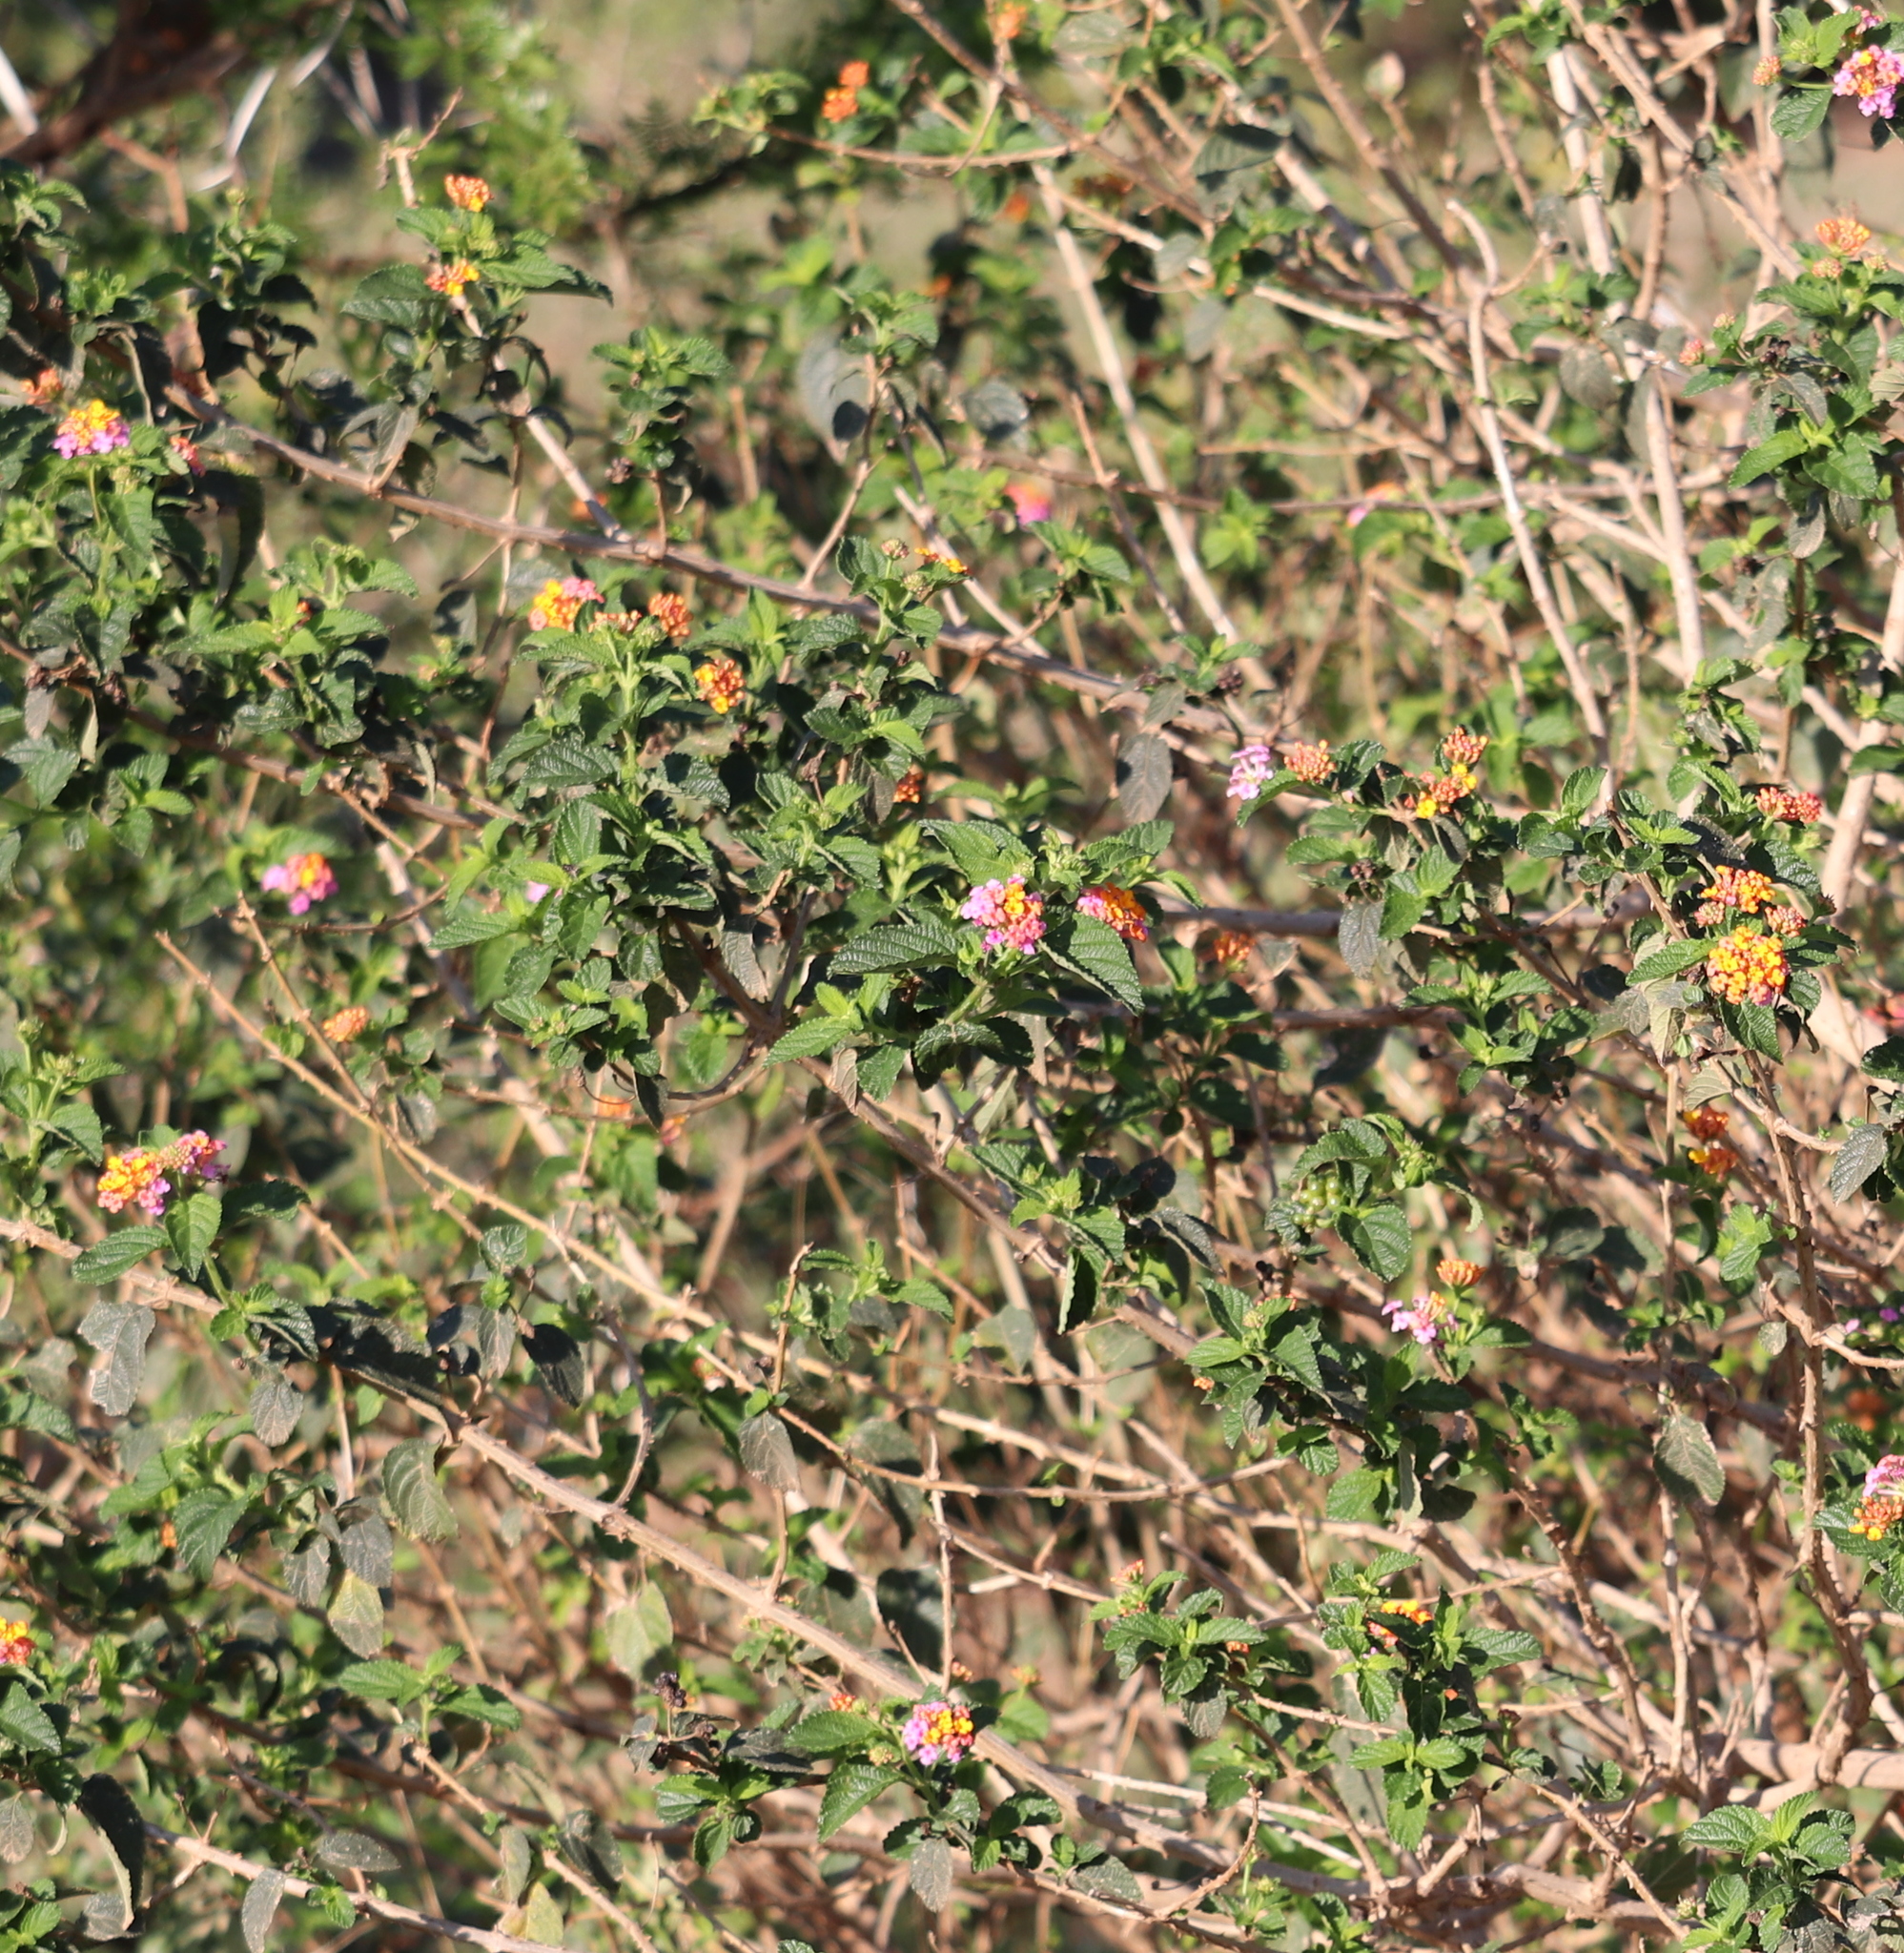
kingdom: Plantae
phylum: Tracheophyta
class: Magnoliopsida
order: Lamiales
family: Verbenaceae
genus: Lantana
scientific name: Lantana camara
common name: Lantana
